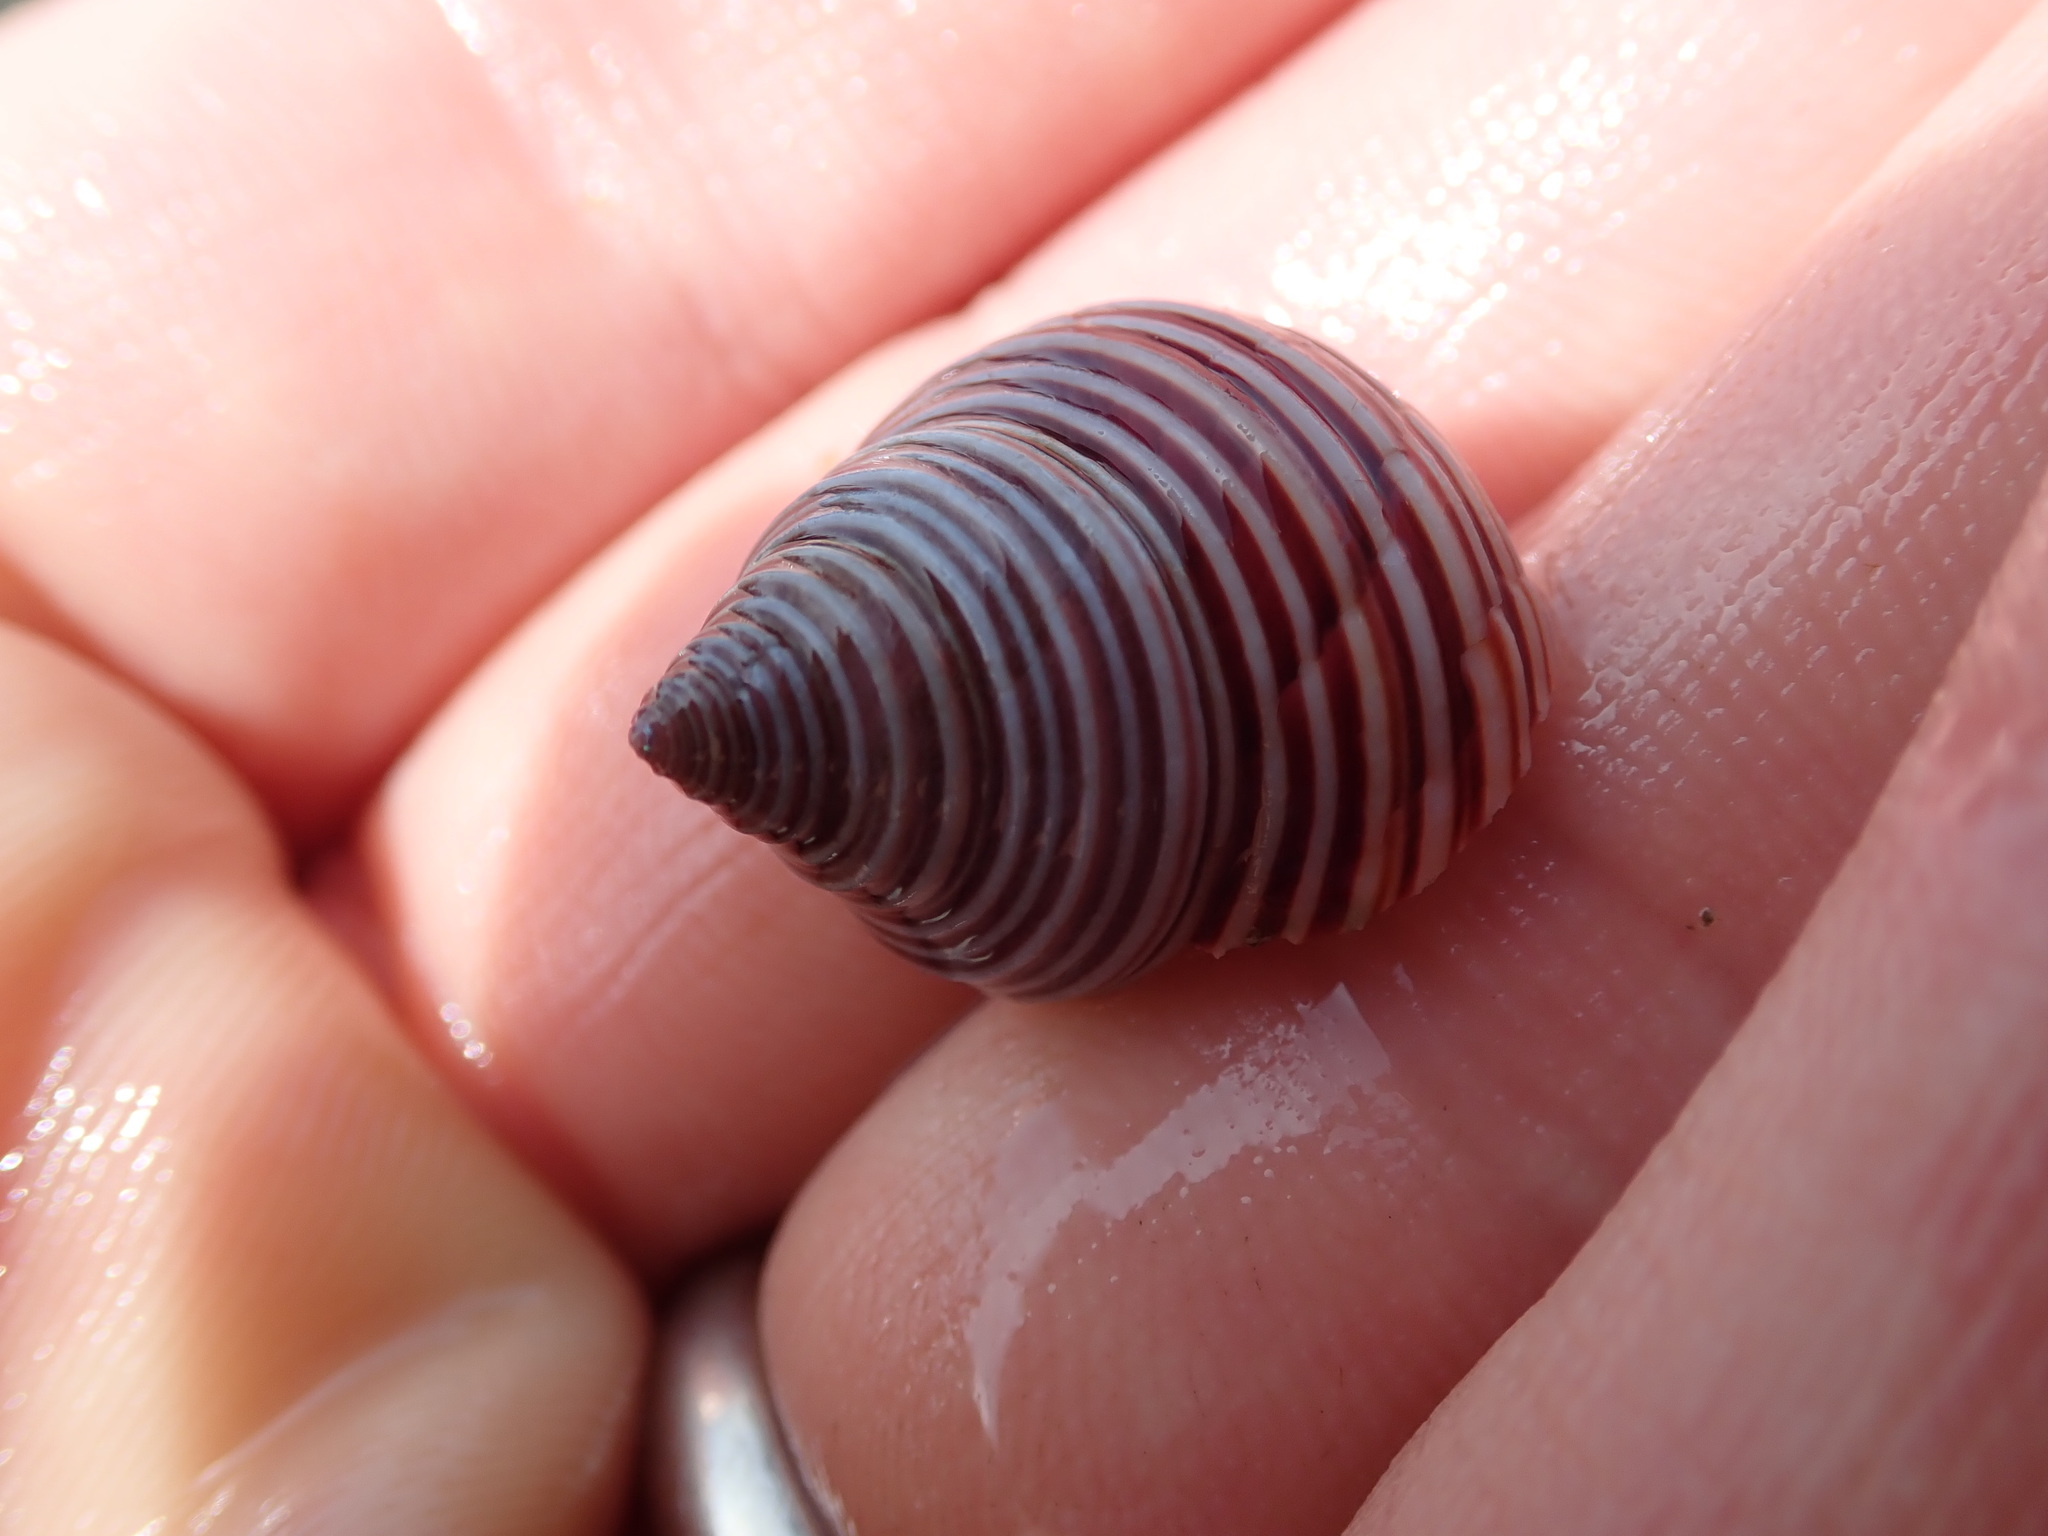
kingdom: Animalia
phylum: Mollusca
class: Gastropoda
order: Trochida
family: Calliostomatidae
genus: Calliostoma
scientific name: Calliostoma ligatum
